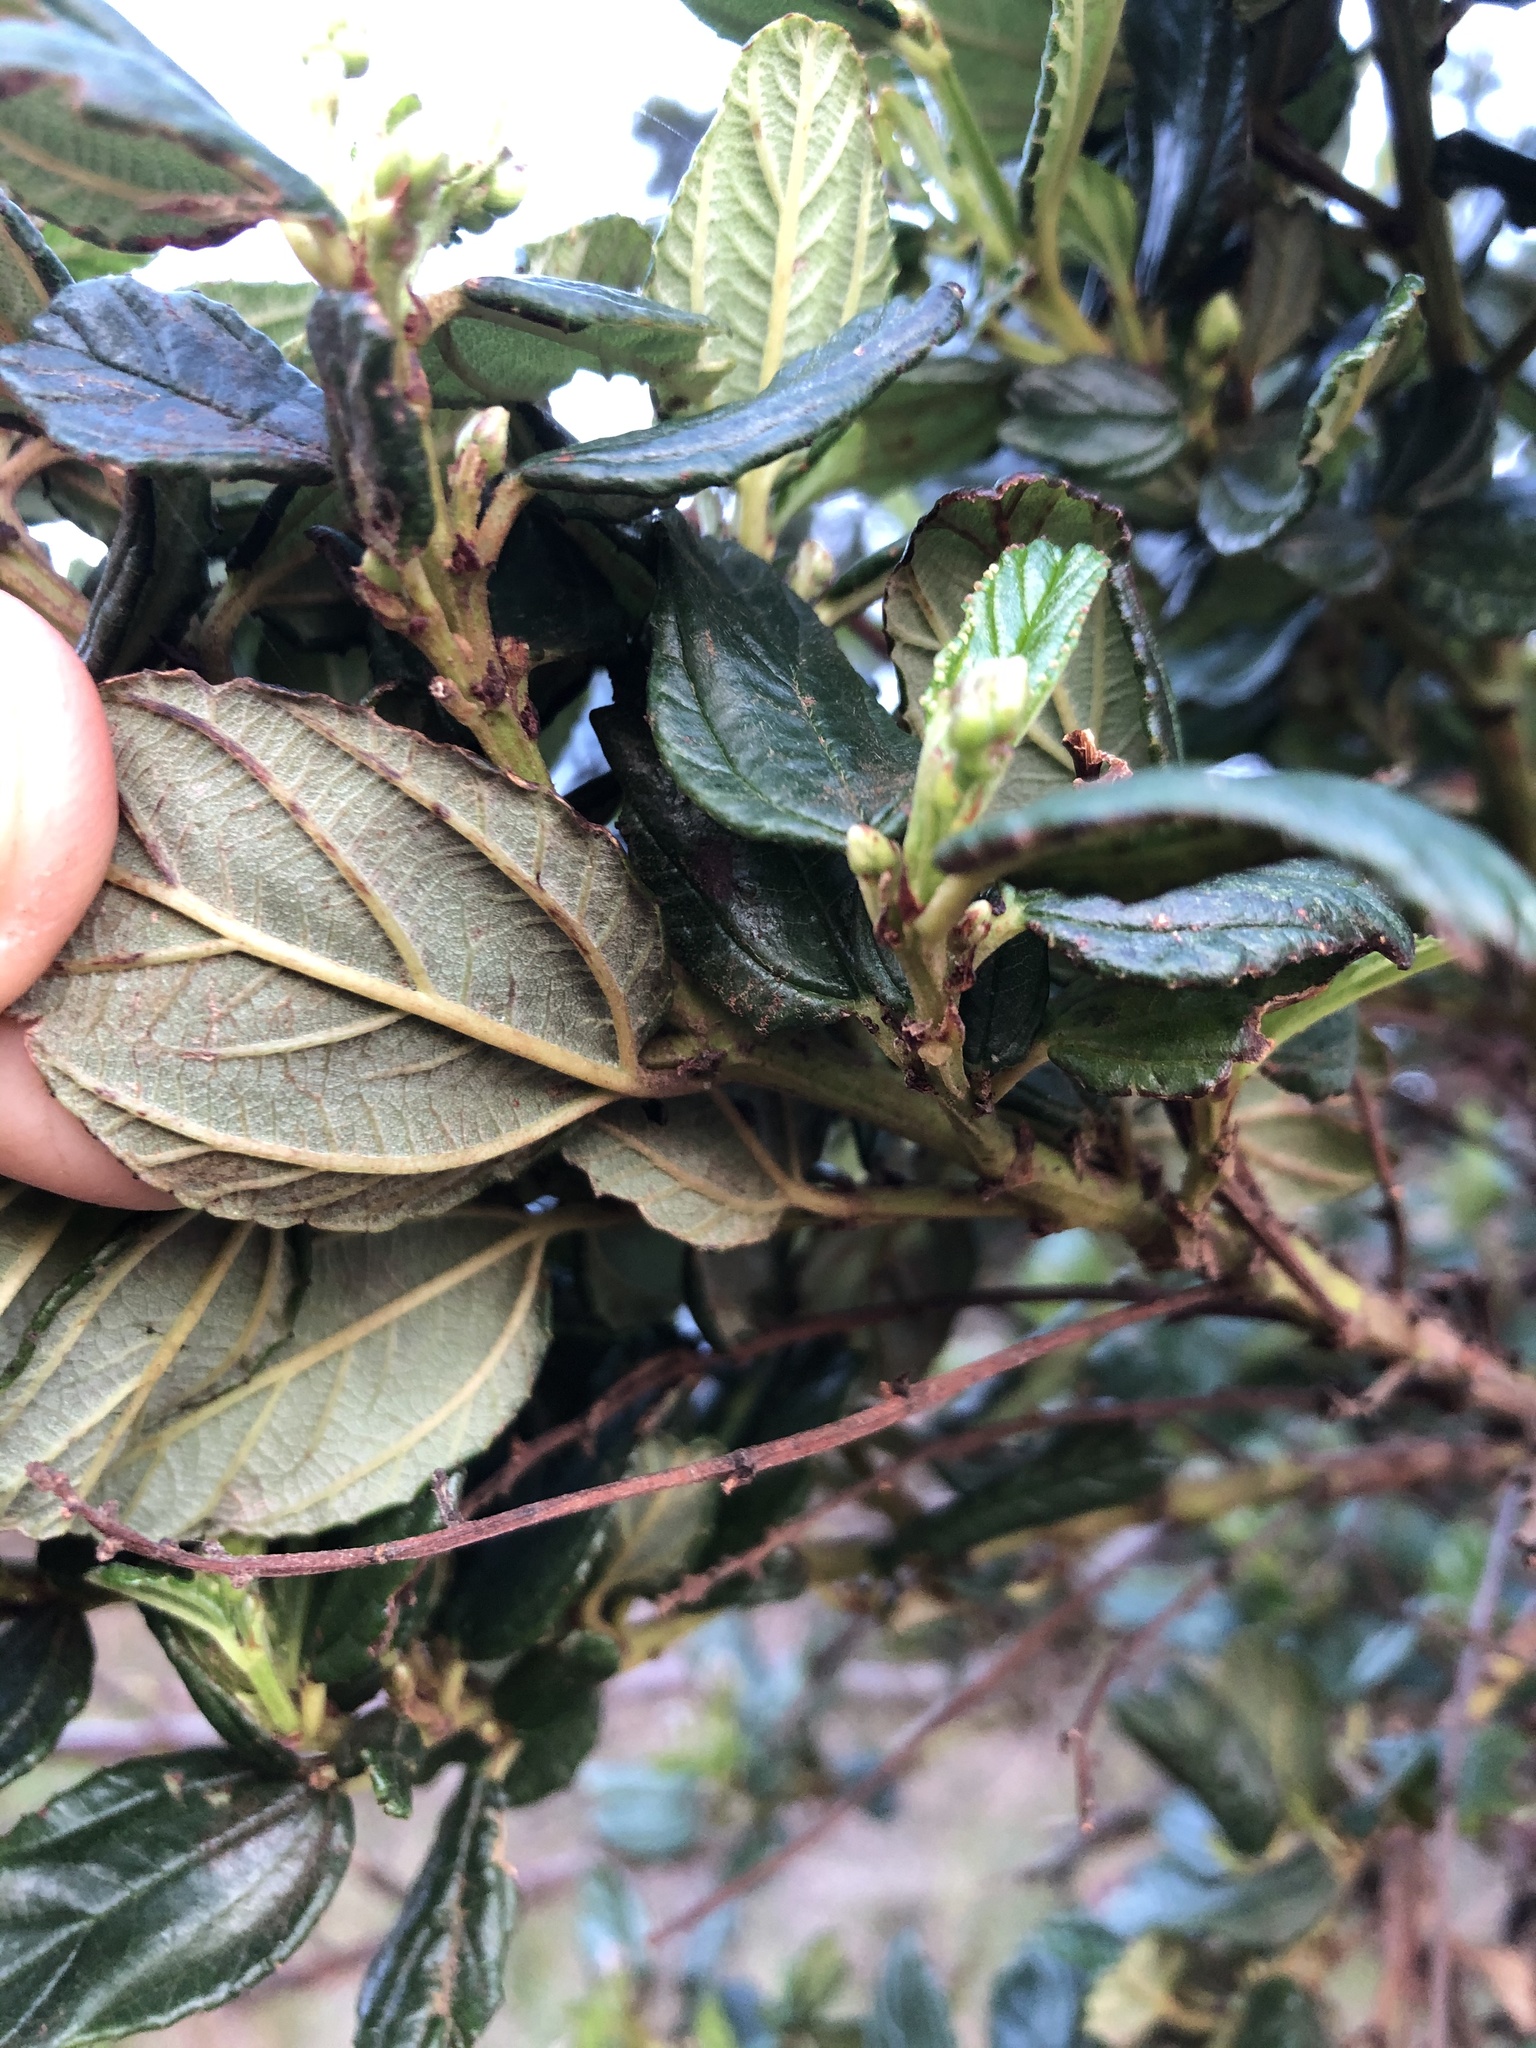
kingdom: Plantae
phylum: Tracheophyta
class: Magnoliopsida
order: Rosales
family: Rhamnaceae
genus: Ceanothus
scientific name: Ceanothus griseus
